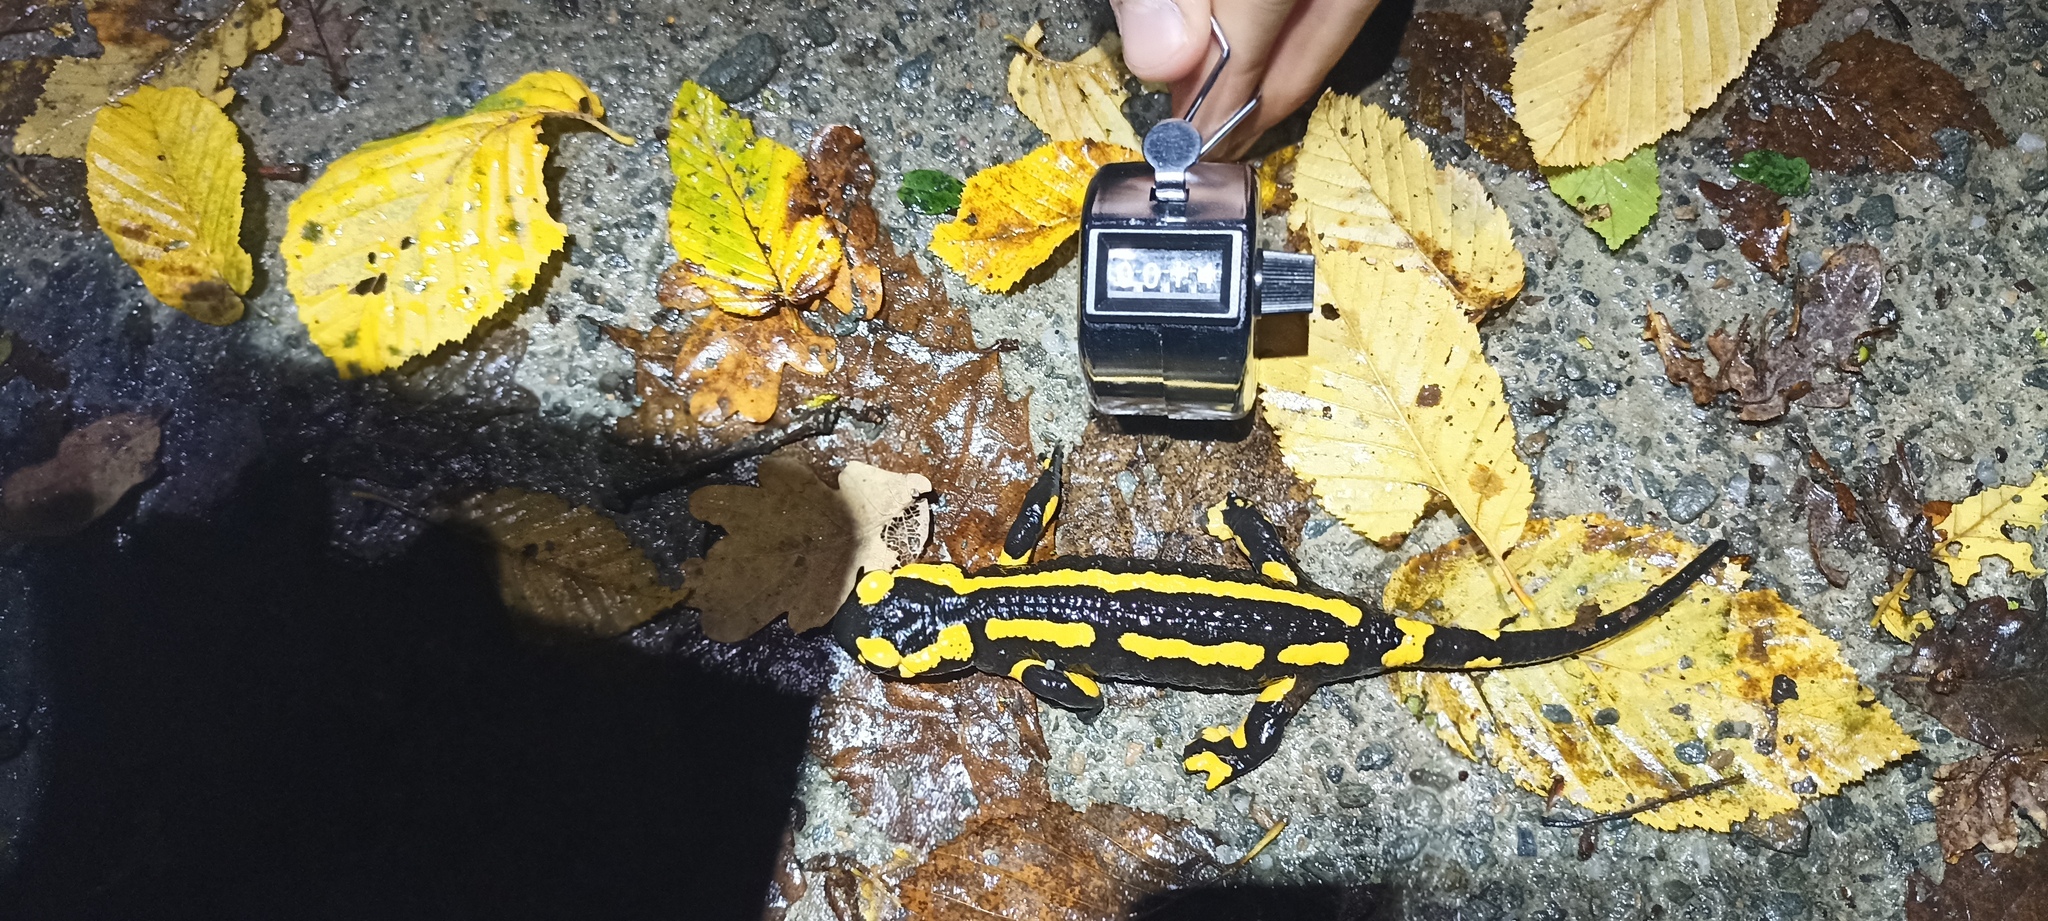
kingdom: Animalia
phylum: Chordata
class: Amphibia
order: Caudata
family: Salamandridae
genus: Salamandra
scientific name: Salamandra salamandra
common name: Fire salamander
